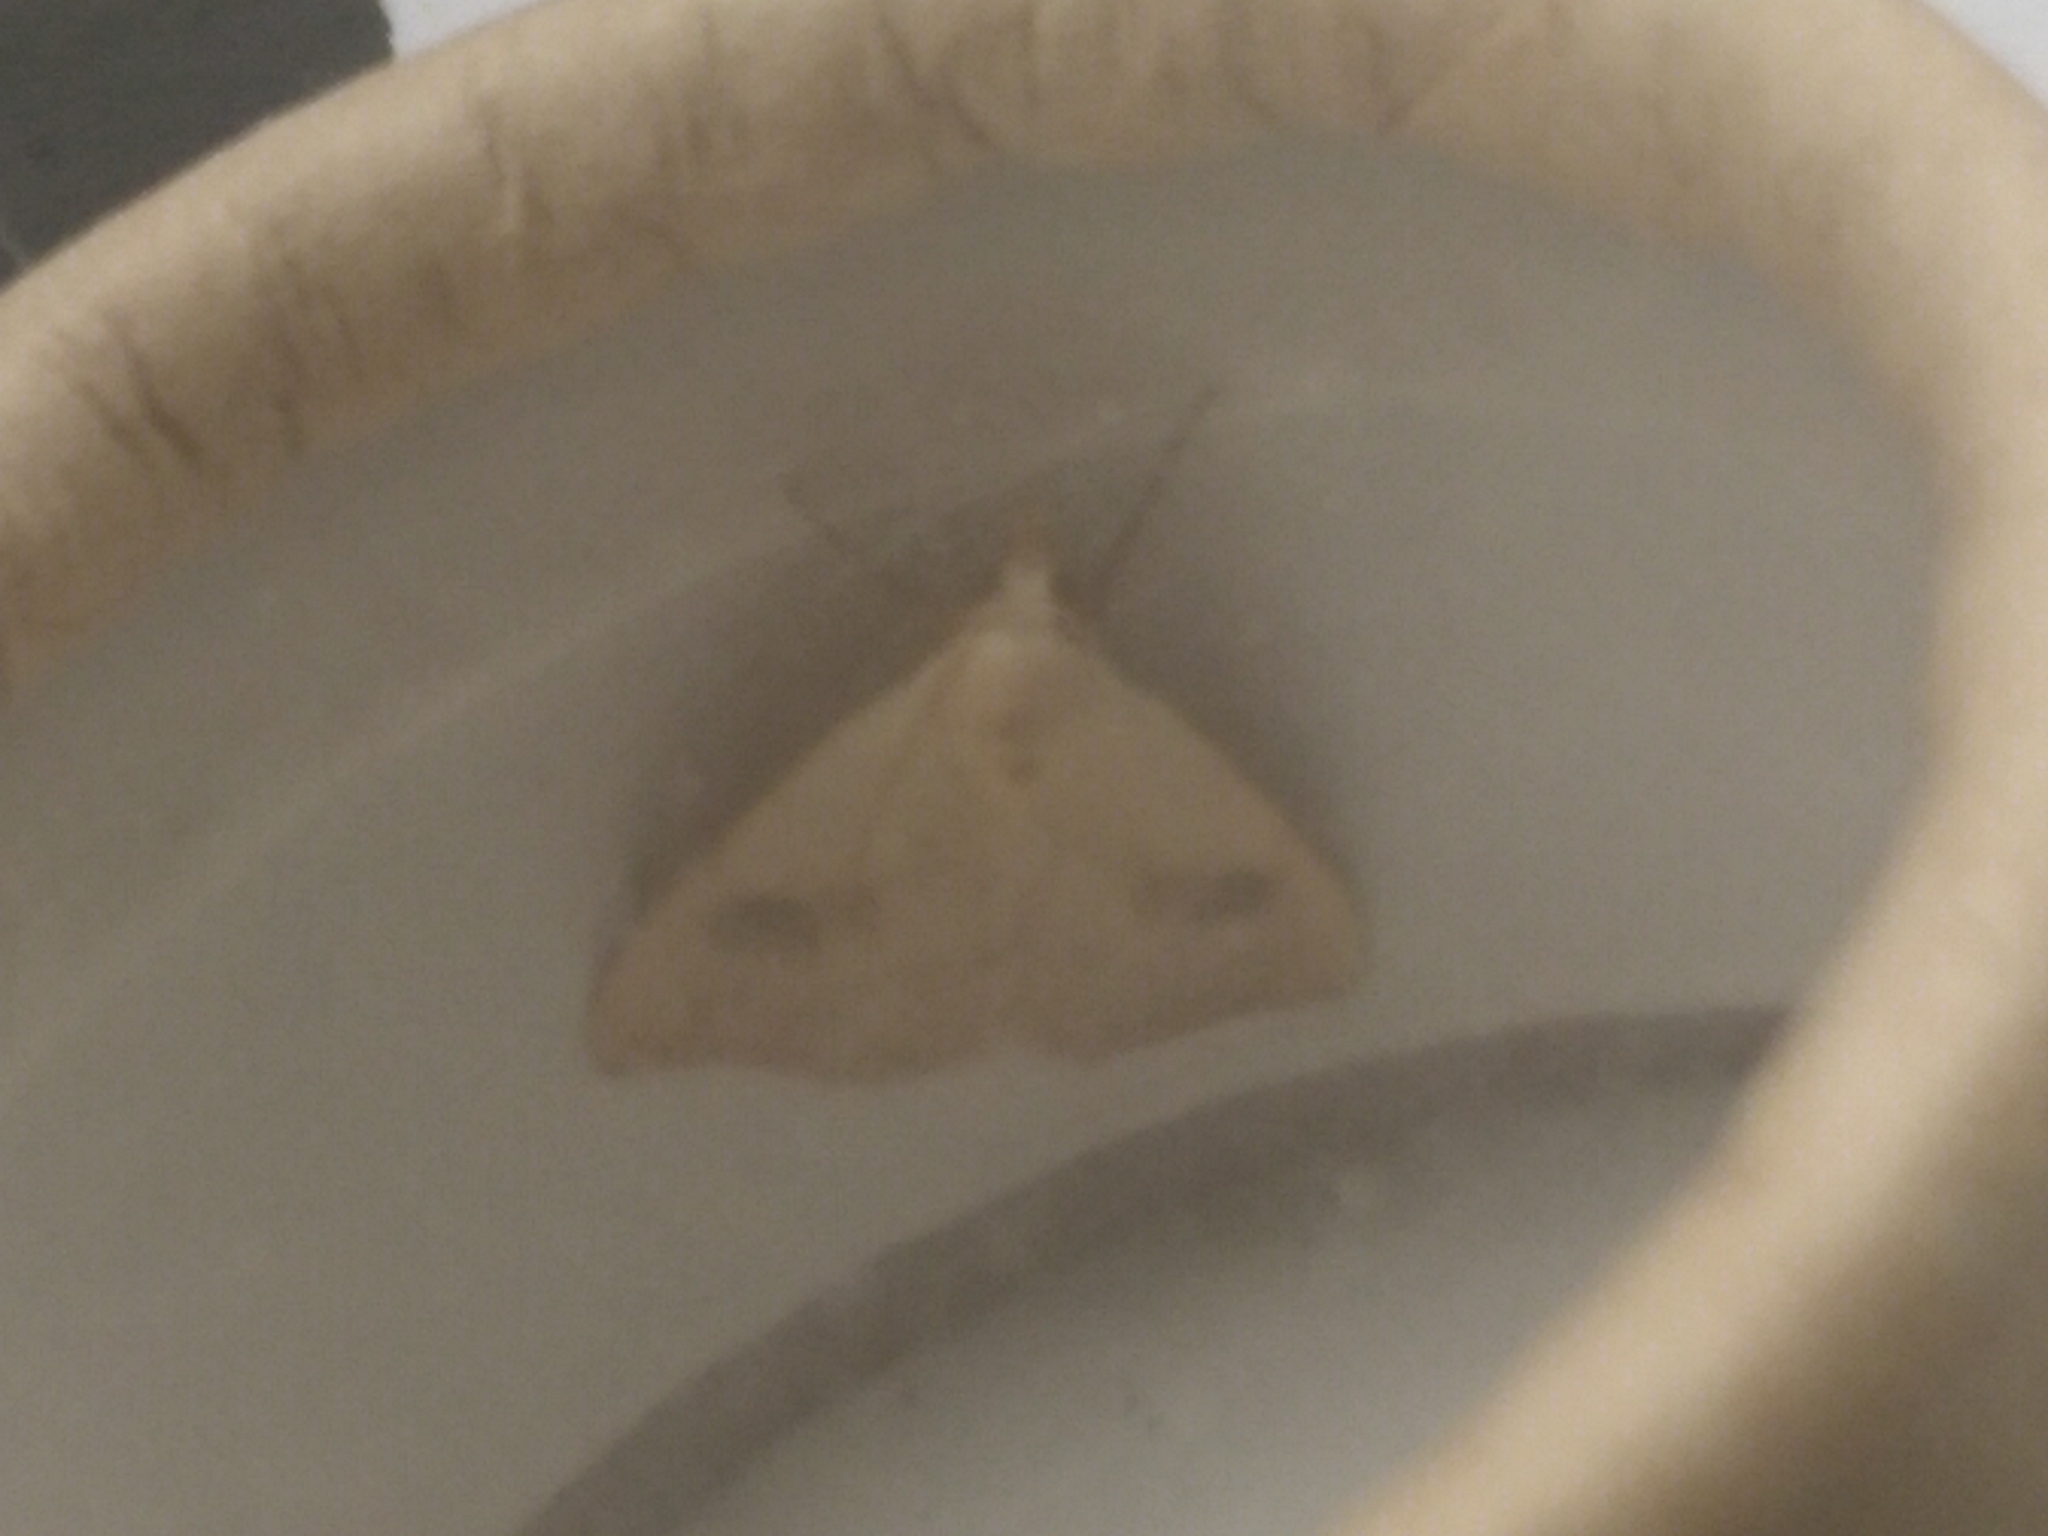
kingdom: Animalia
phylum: Arthropoda
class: Insecta
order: Lepidoptera
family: Erebidae
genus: Rivula
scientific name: Rivula sericealis
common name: Straw dot
